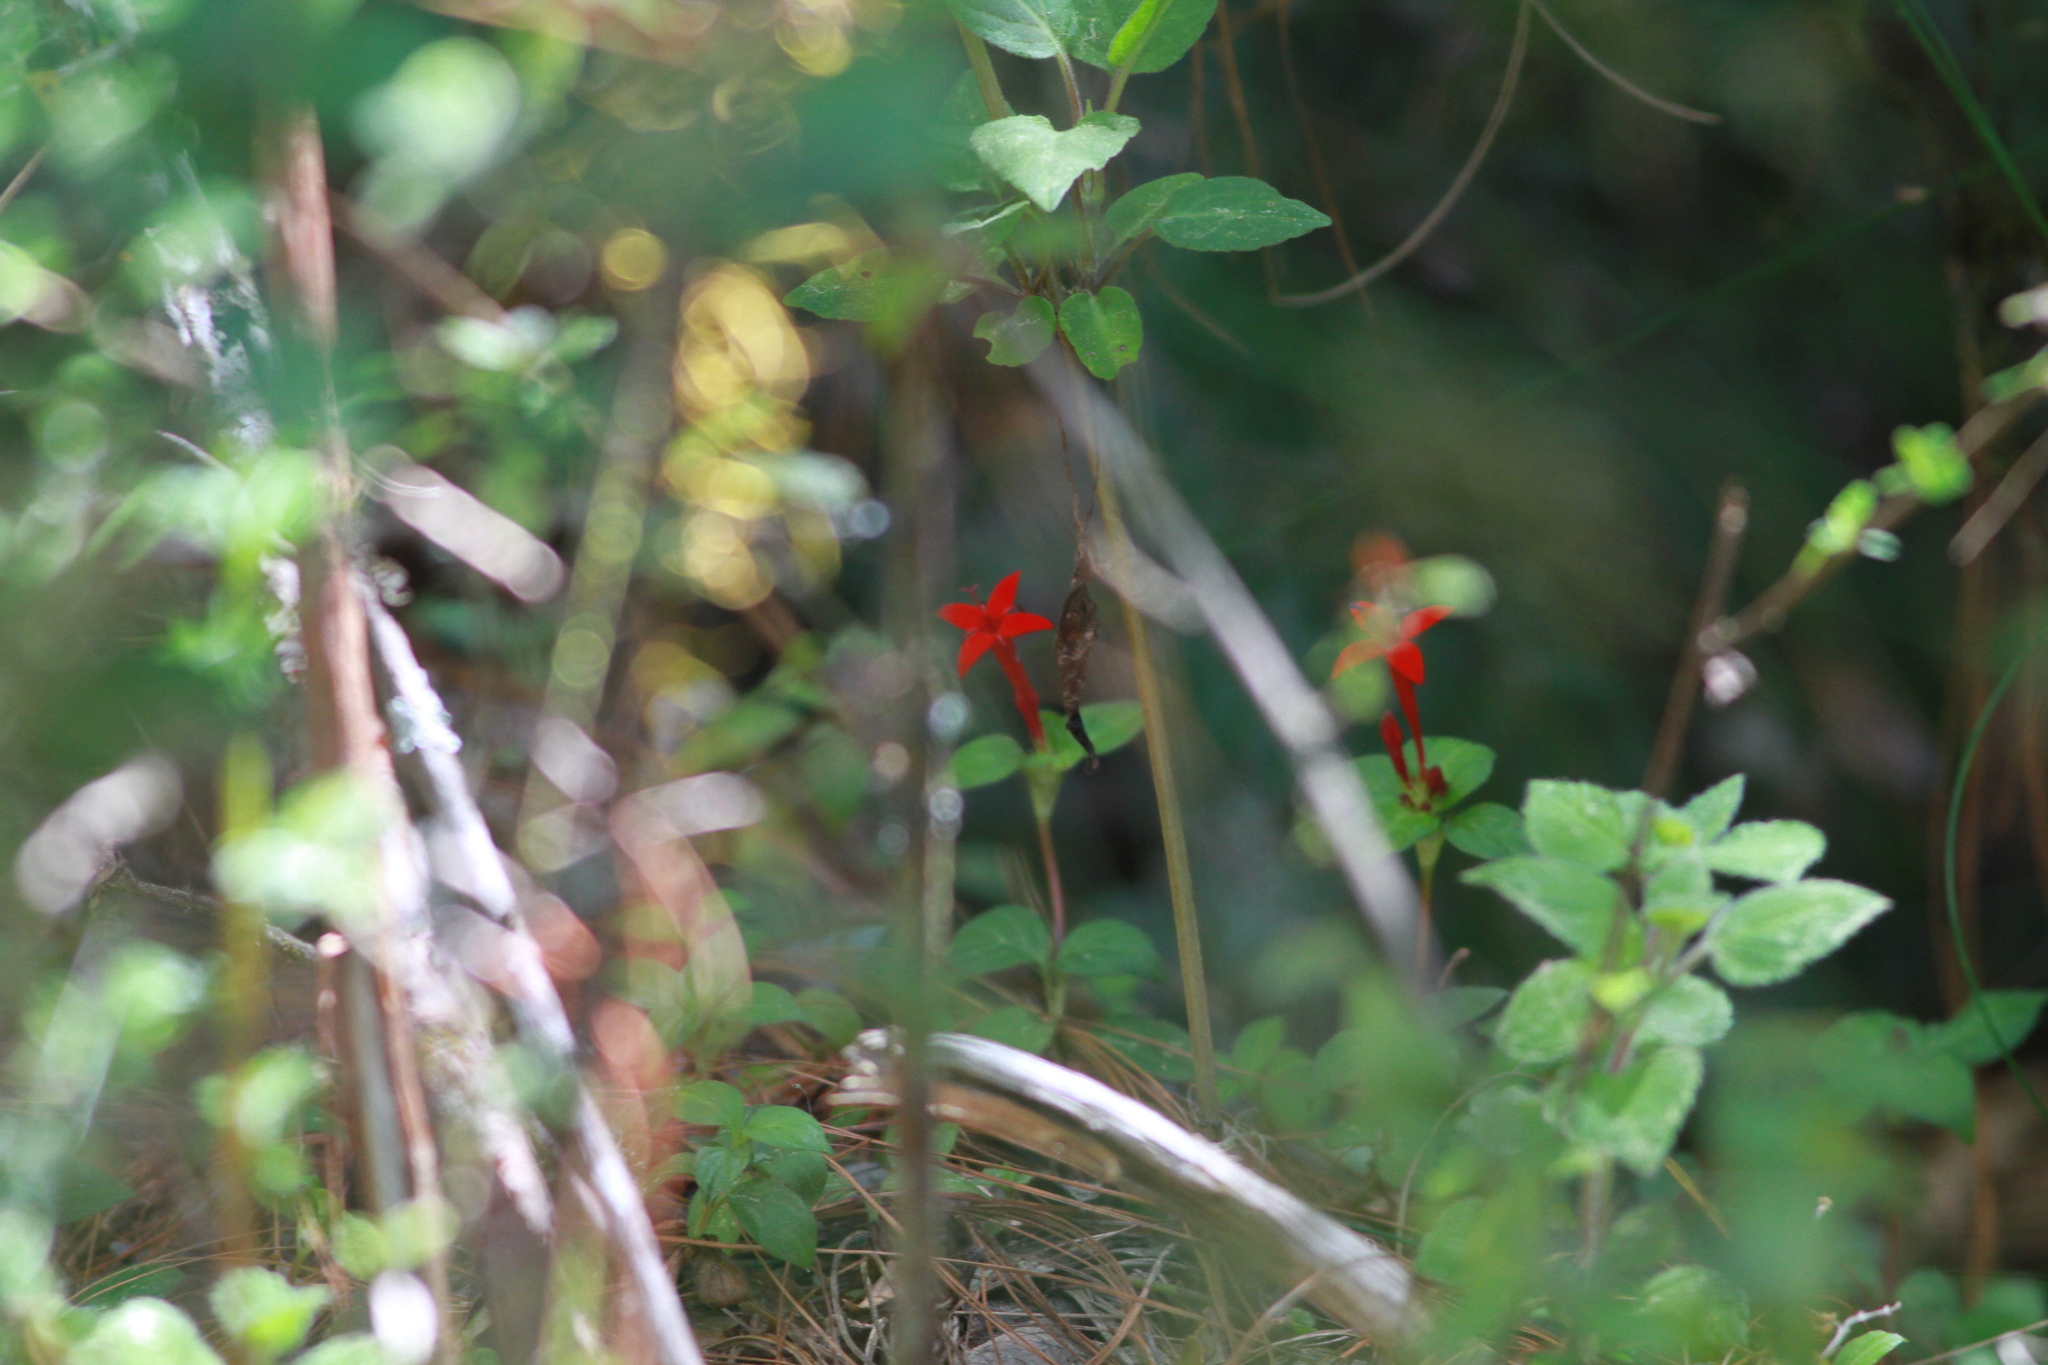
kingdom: Plantae
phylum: Tracheophyta
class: Magnoliopsida
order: Gentianales
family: Rubiaceae
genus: Crusea
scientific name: Crusea coccinea
